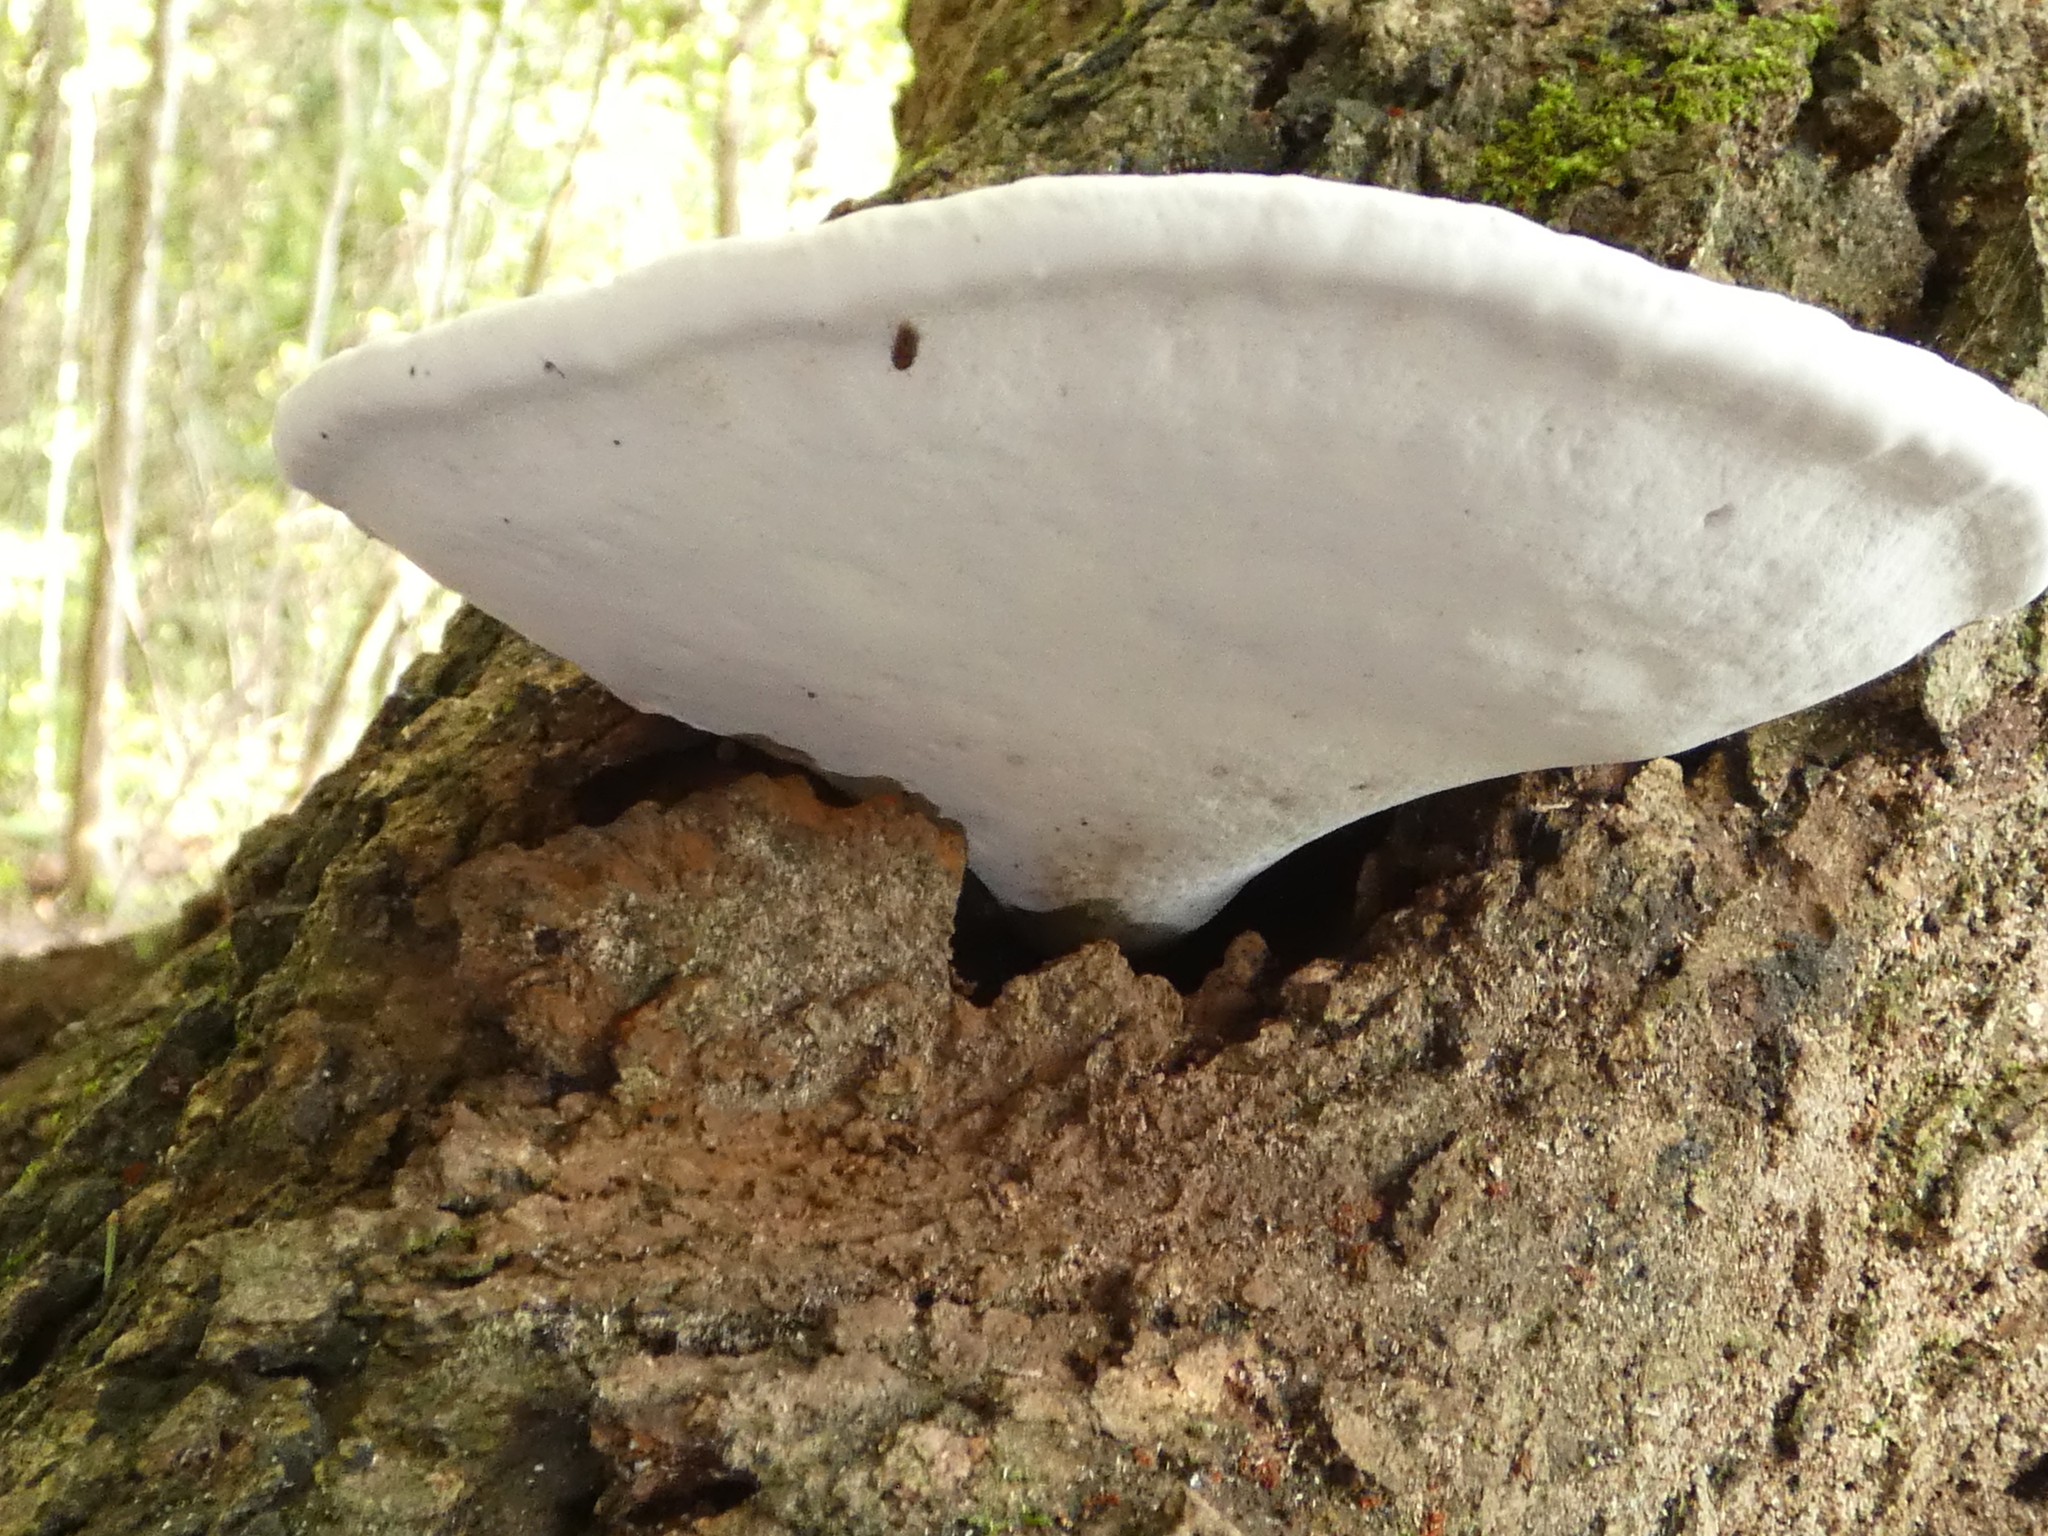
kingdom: Fungi
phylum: Basidiomycota
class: Agaricomycetes
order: Polyporales
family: Polyporaceae
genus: Ganoderma
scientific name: Ganoderma lobatum
